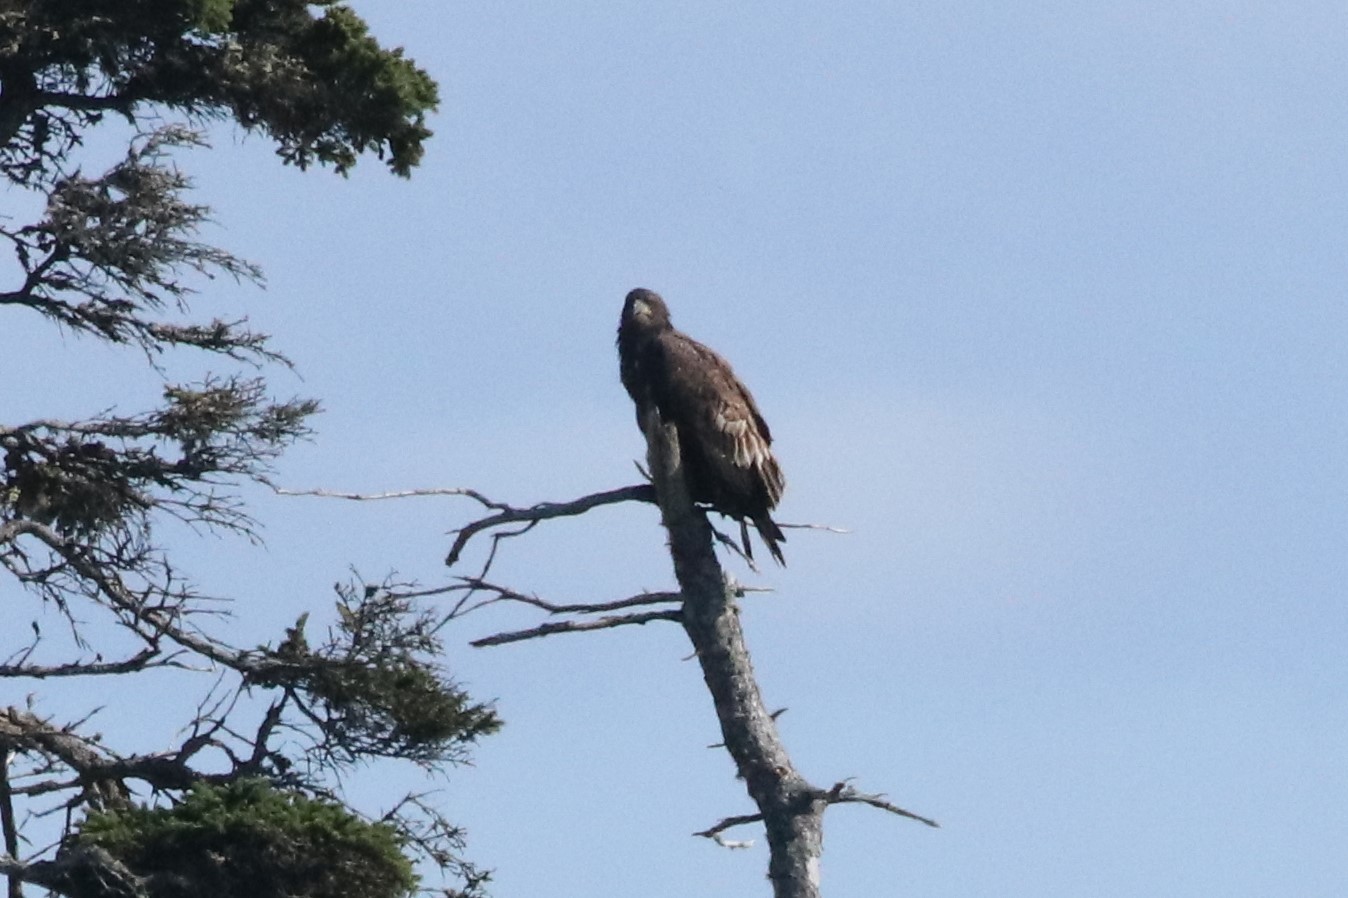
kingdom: Animalia
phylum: Chordata
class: Aves
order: Accipitriformes
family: Accipitridae
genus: Haliaeetus
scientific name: Haliaeetus leucocephalus
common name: Bald eagle
